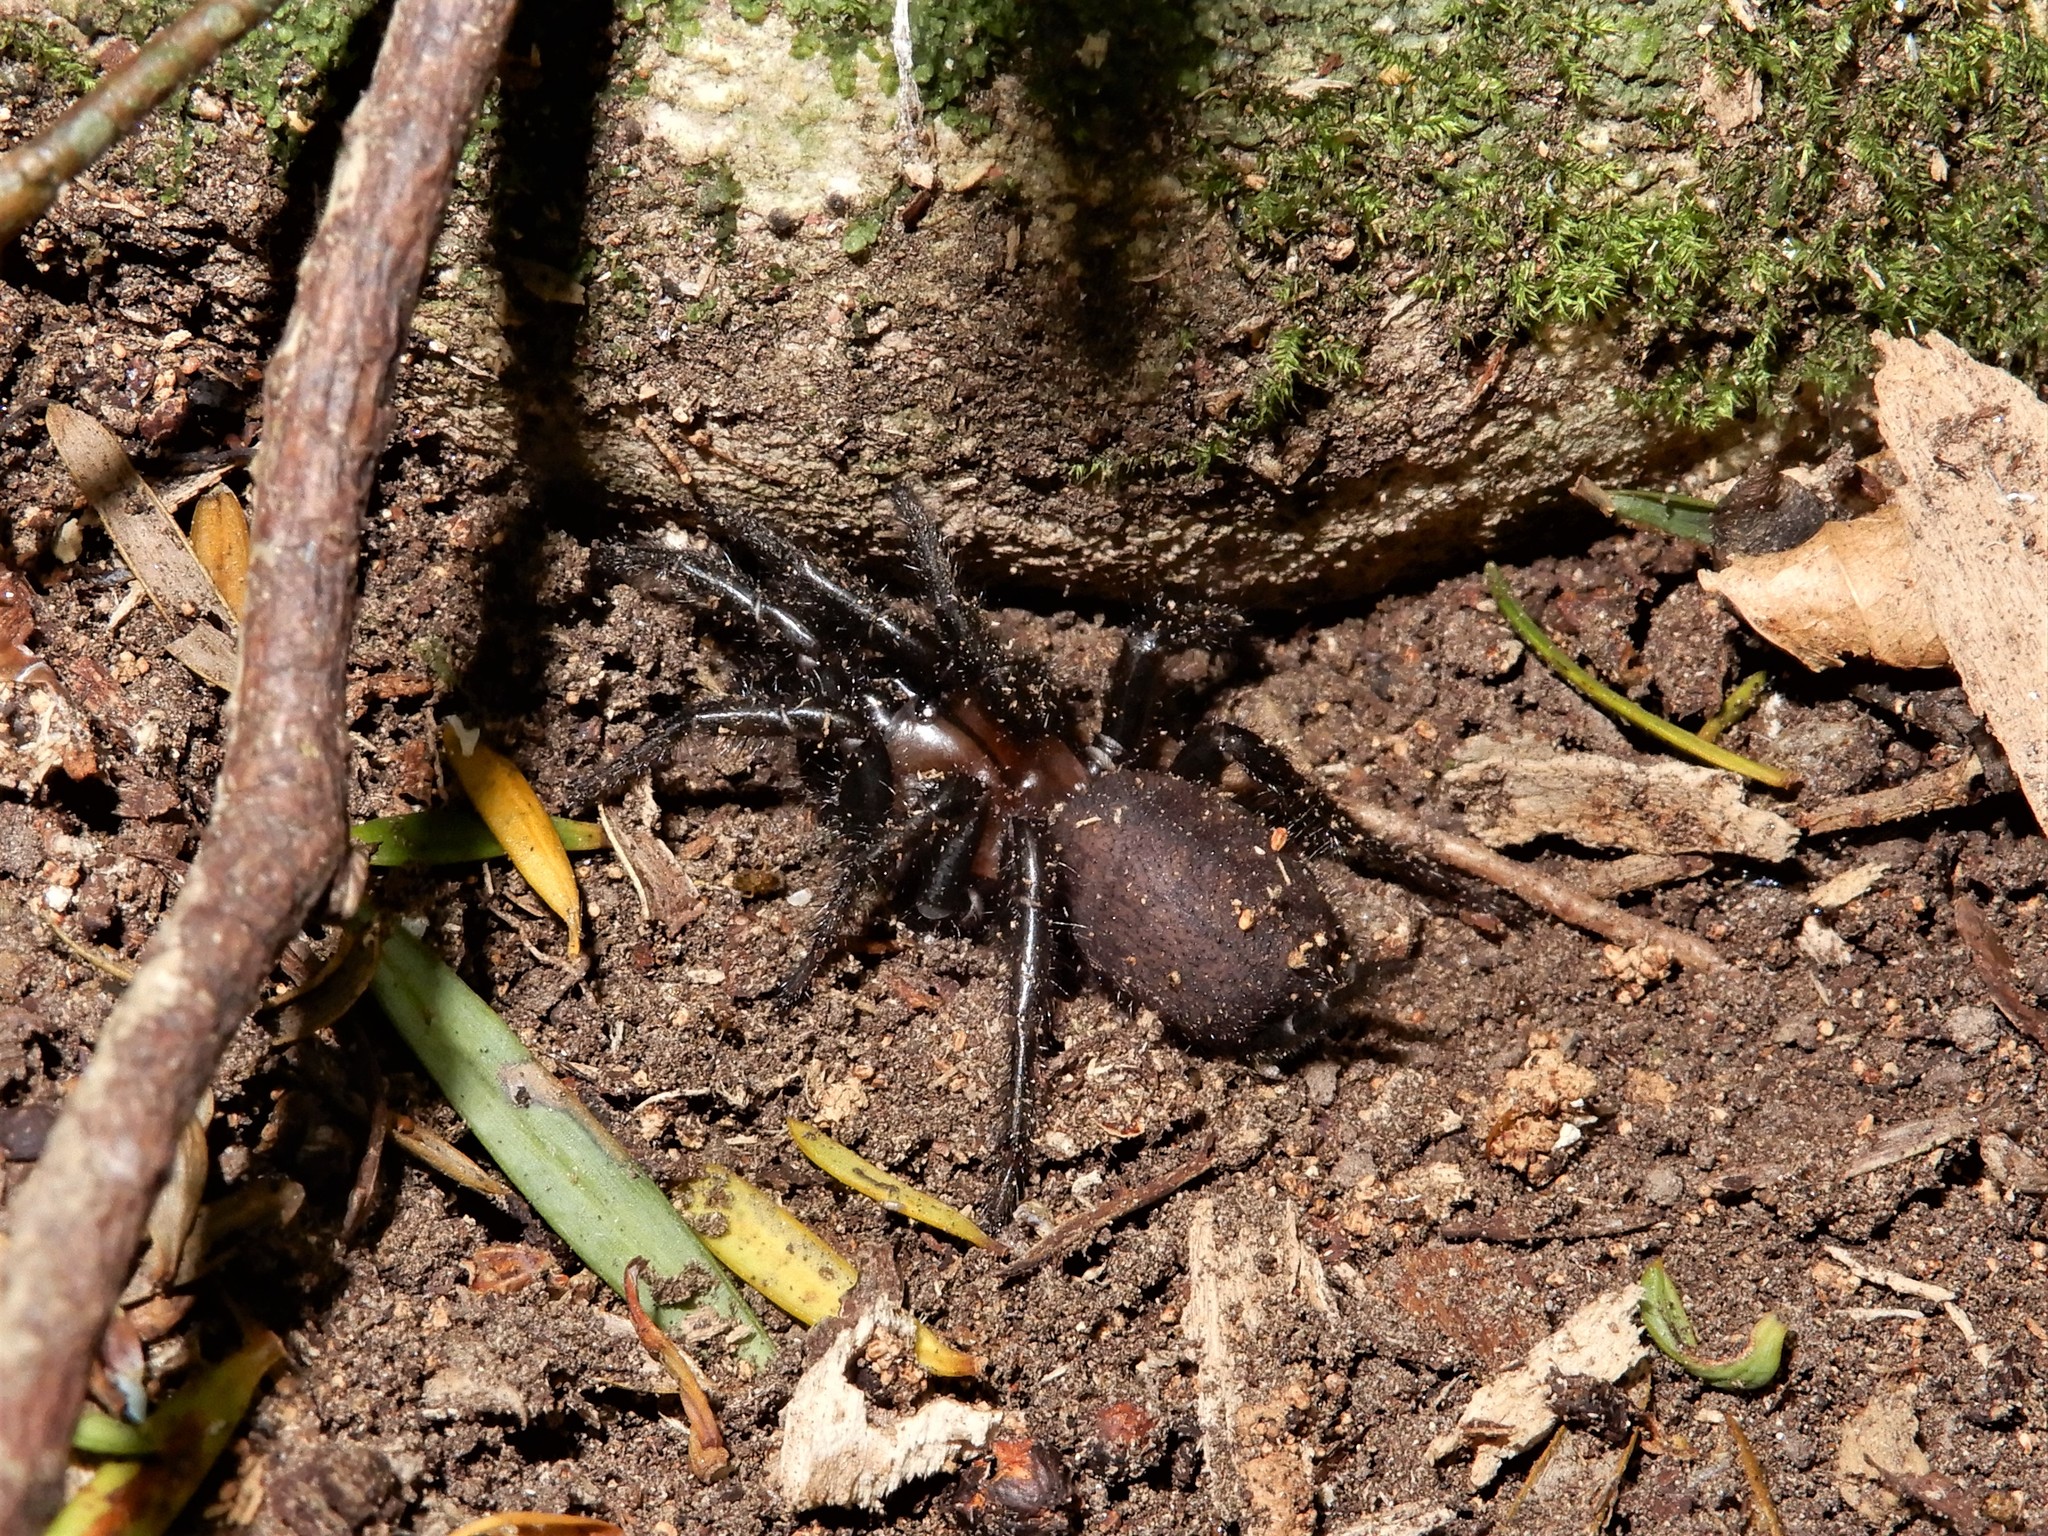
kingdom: Animalia
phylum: Arthropoda
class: Arachnida
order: Araneae
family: Porrhothelidae
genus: Porrhothele
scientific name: Porrhothele antipodiana
